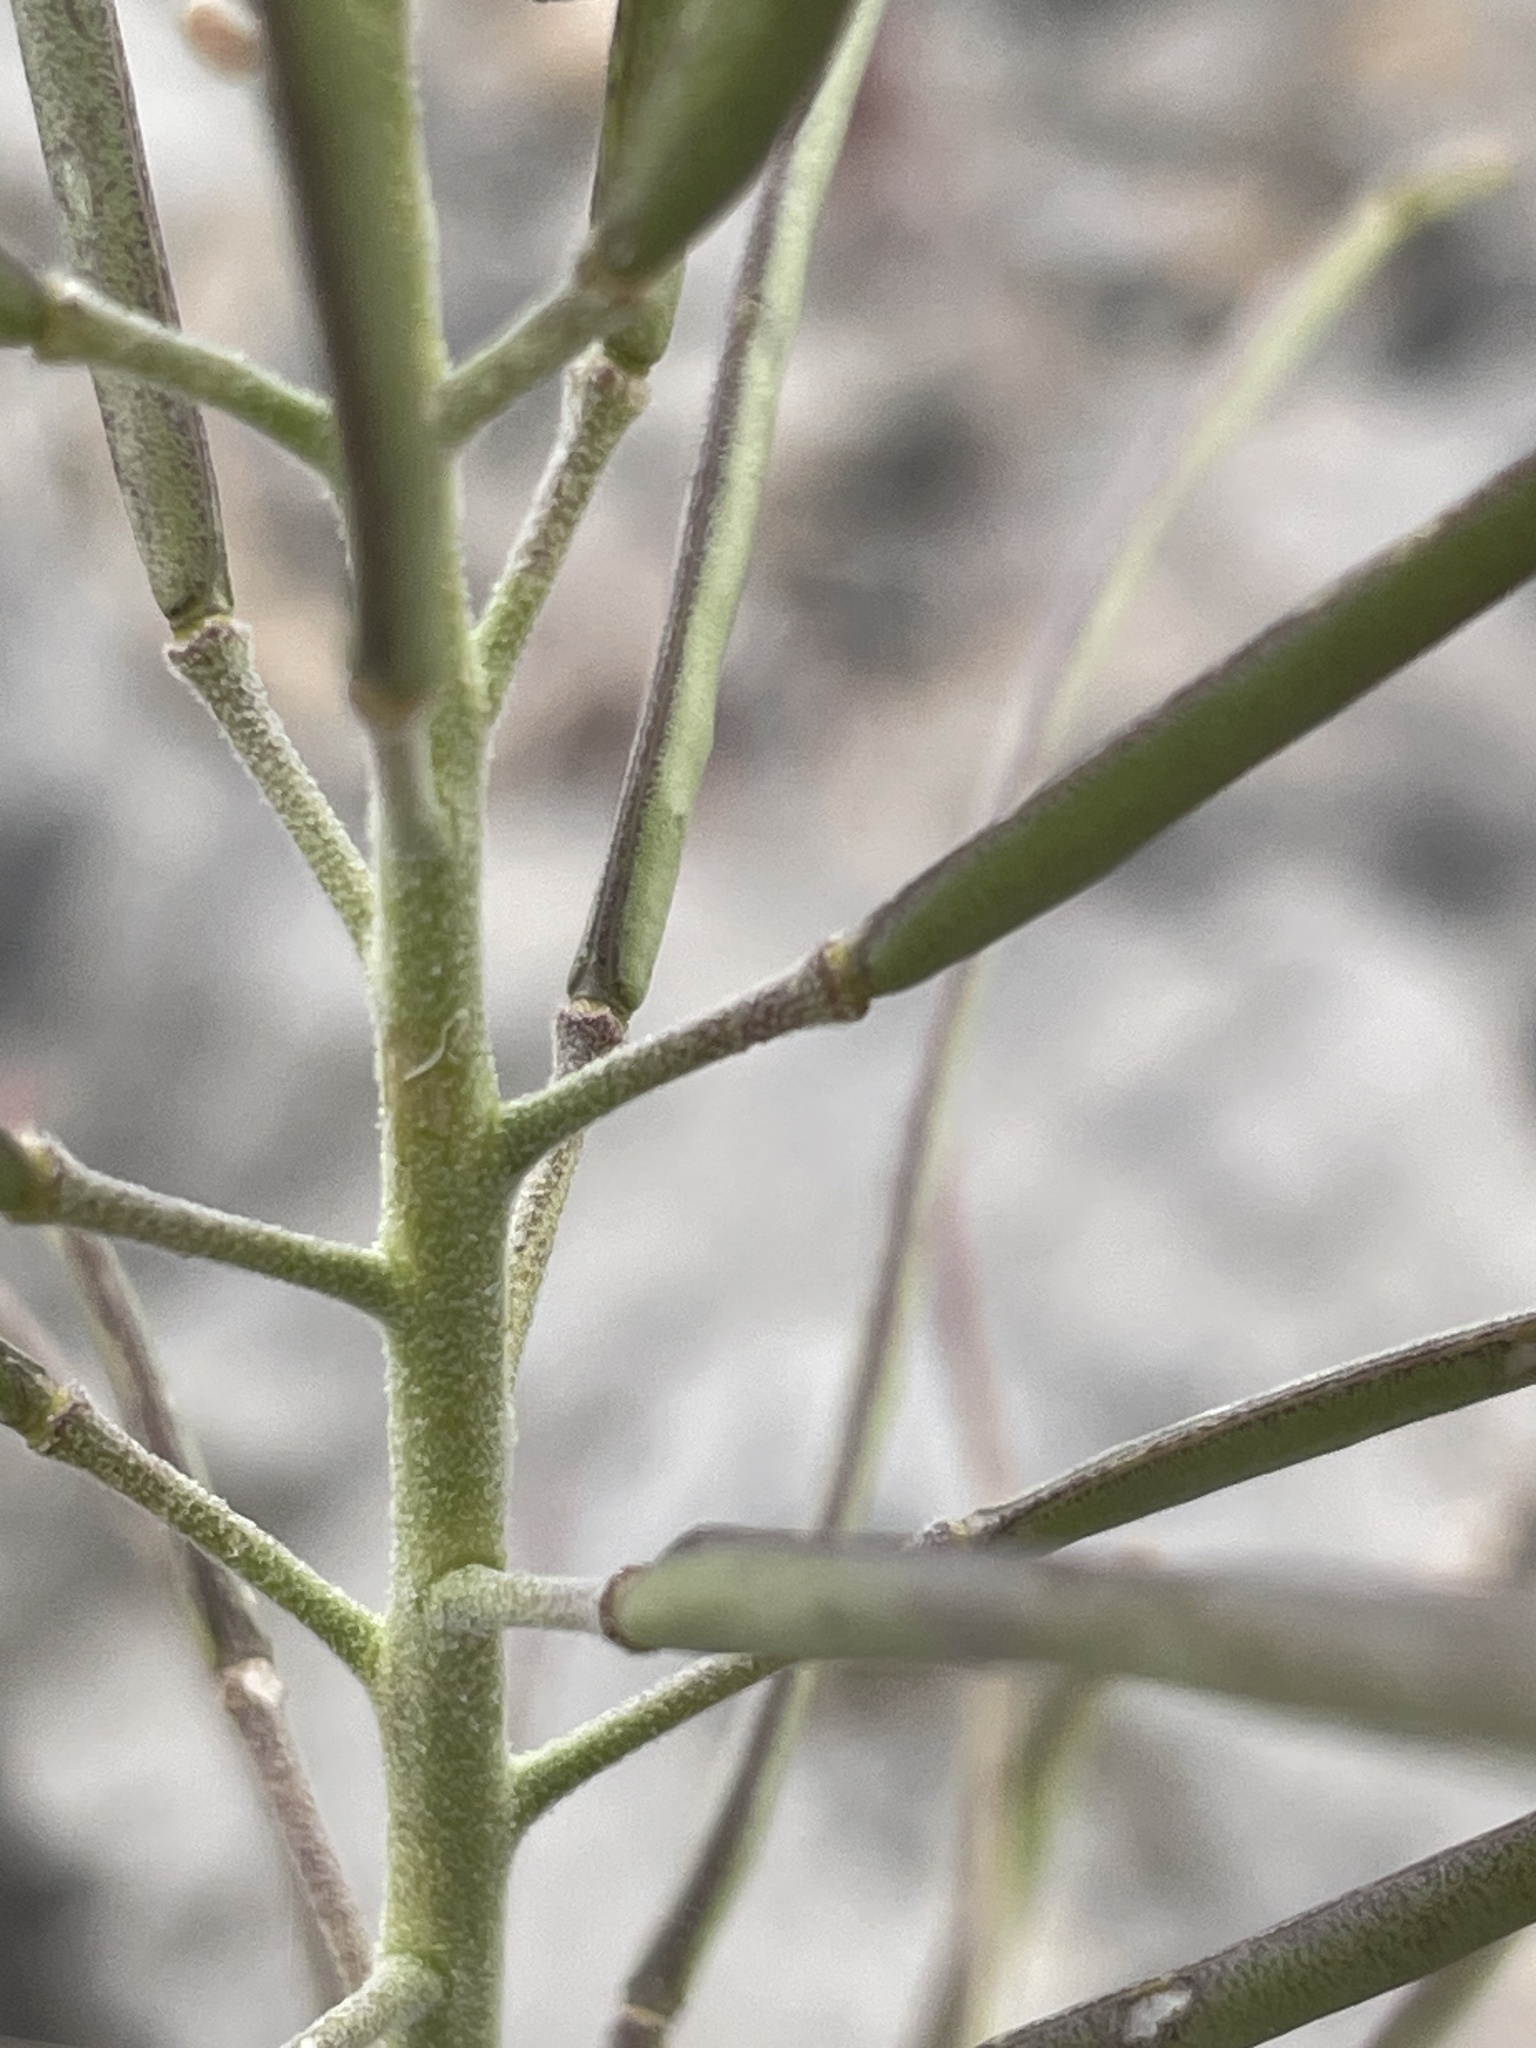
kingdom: Plantae
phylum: Tracheophyta
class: Magnoliopsida
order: Brassicales
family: Brassicaceae
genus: Boechera
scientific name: Boechera shockleyi
